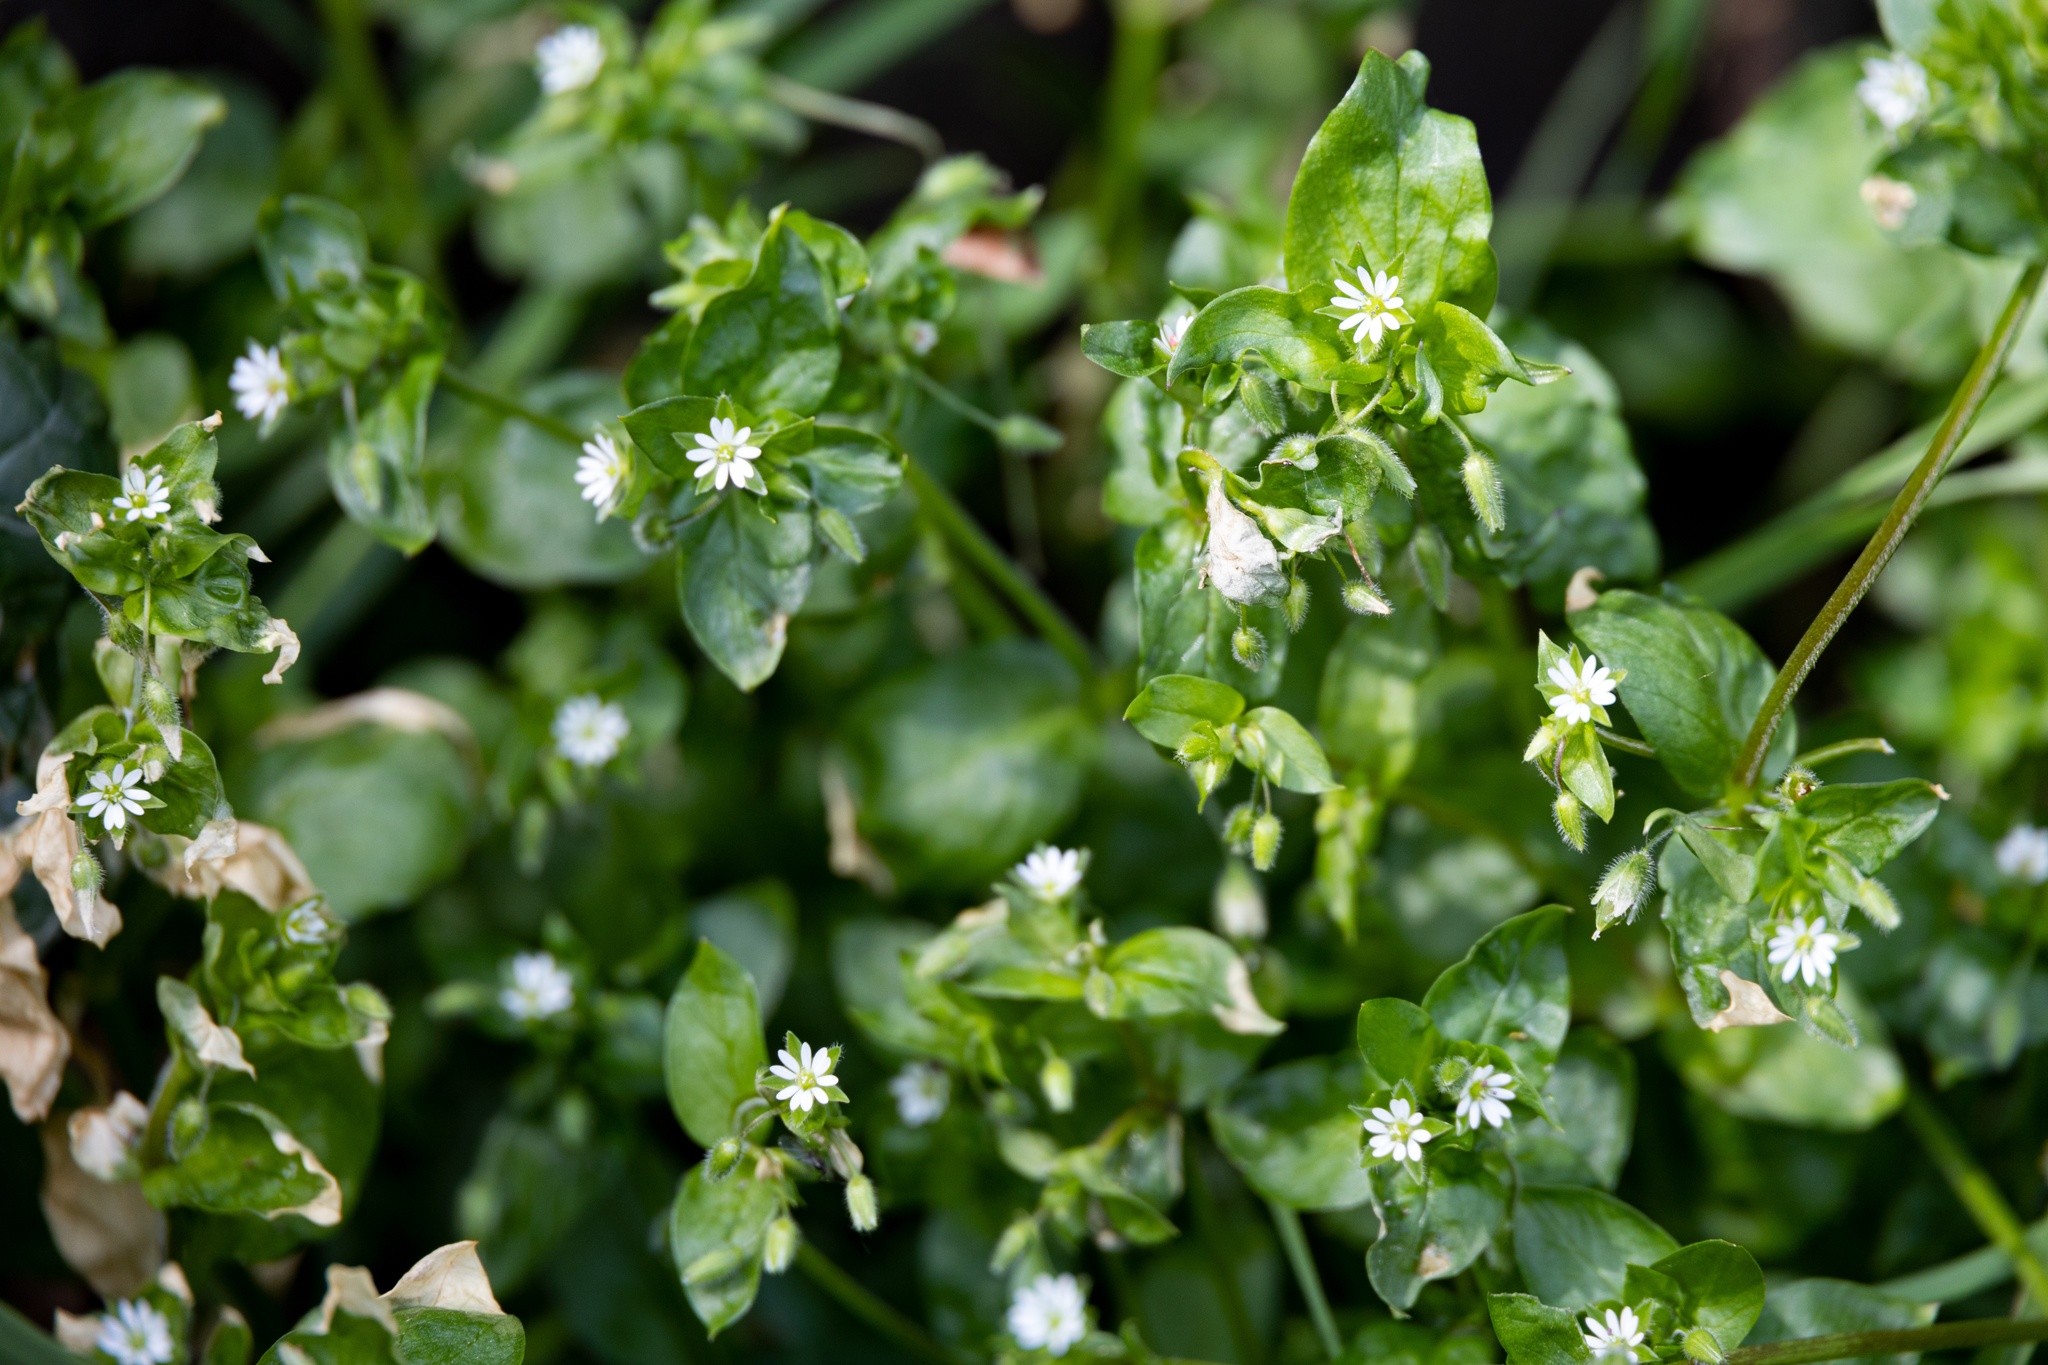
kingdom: Plantae
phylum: Tracheophyta
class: Magnoliopsida
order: Caryophyllales
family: Caryophyllaceae
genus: Stellaria
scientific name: Stellaria media
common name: Common chickweed
